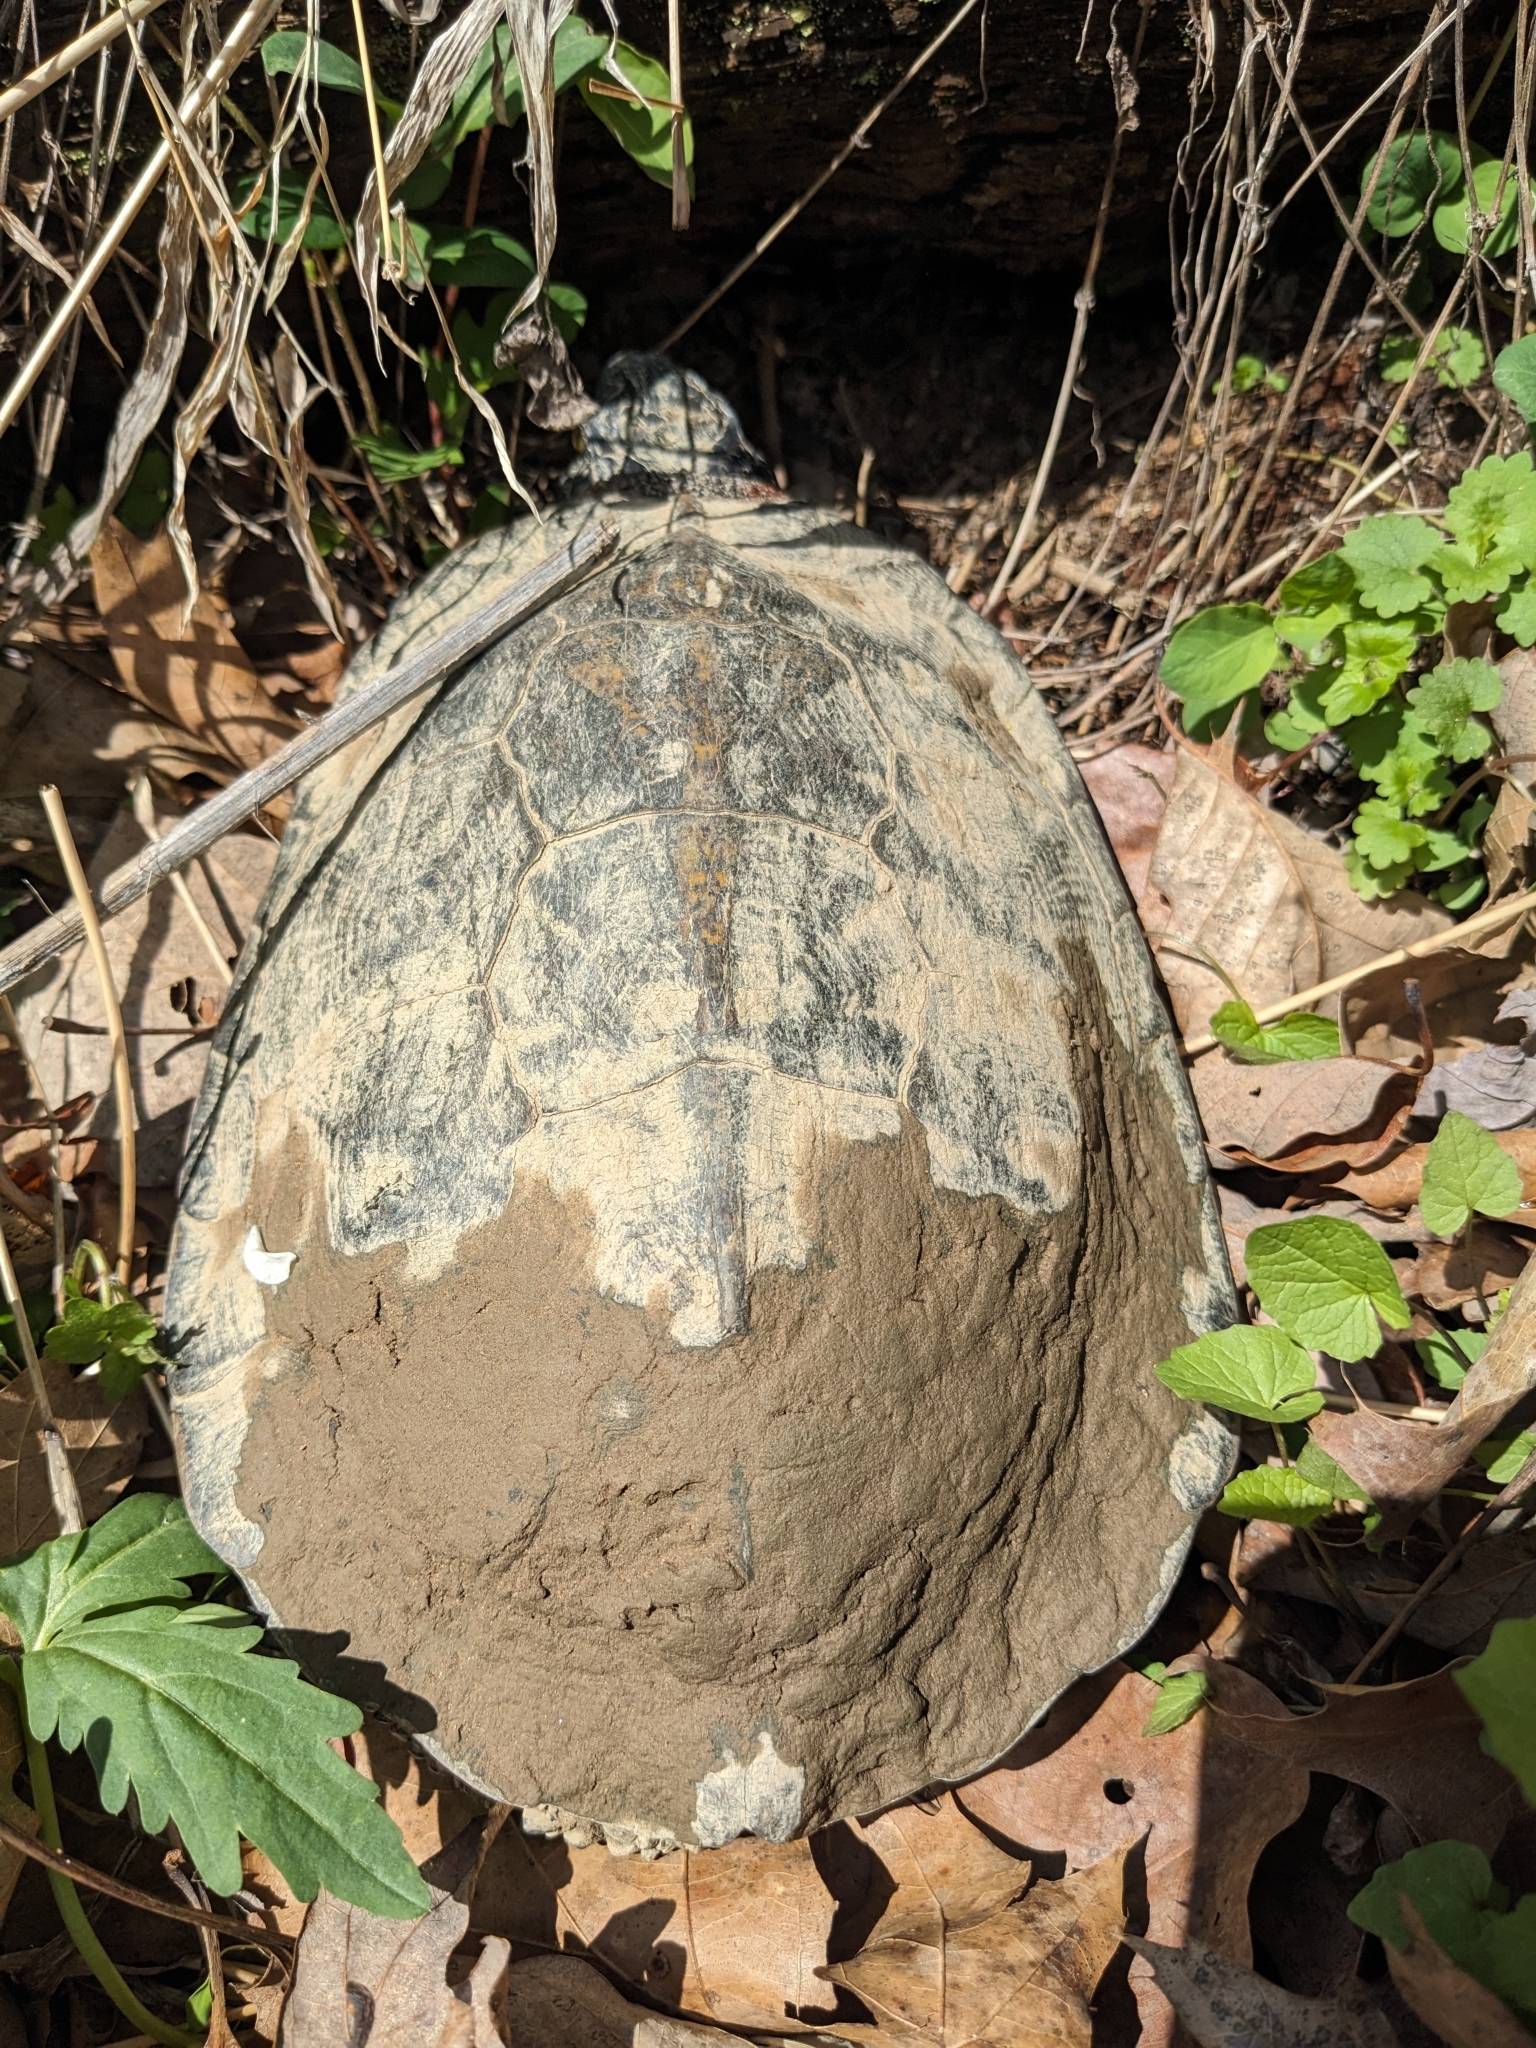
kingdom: Animalia
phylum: Chordata
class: Testudines
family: Emydidae
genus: Glyptemys
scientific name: Glyptemys insculpta
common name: Wood turtle
